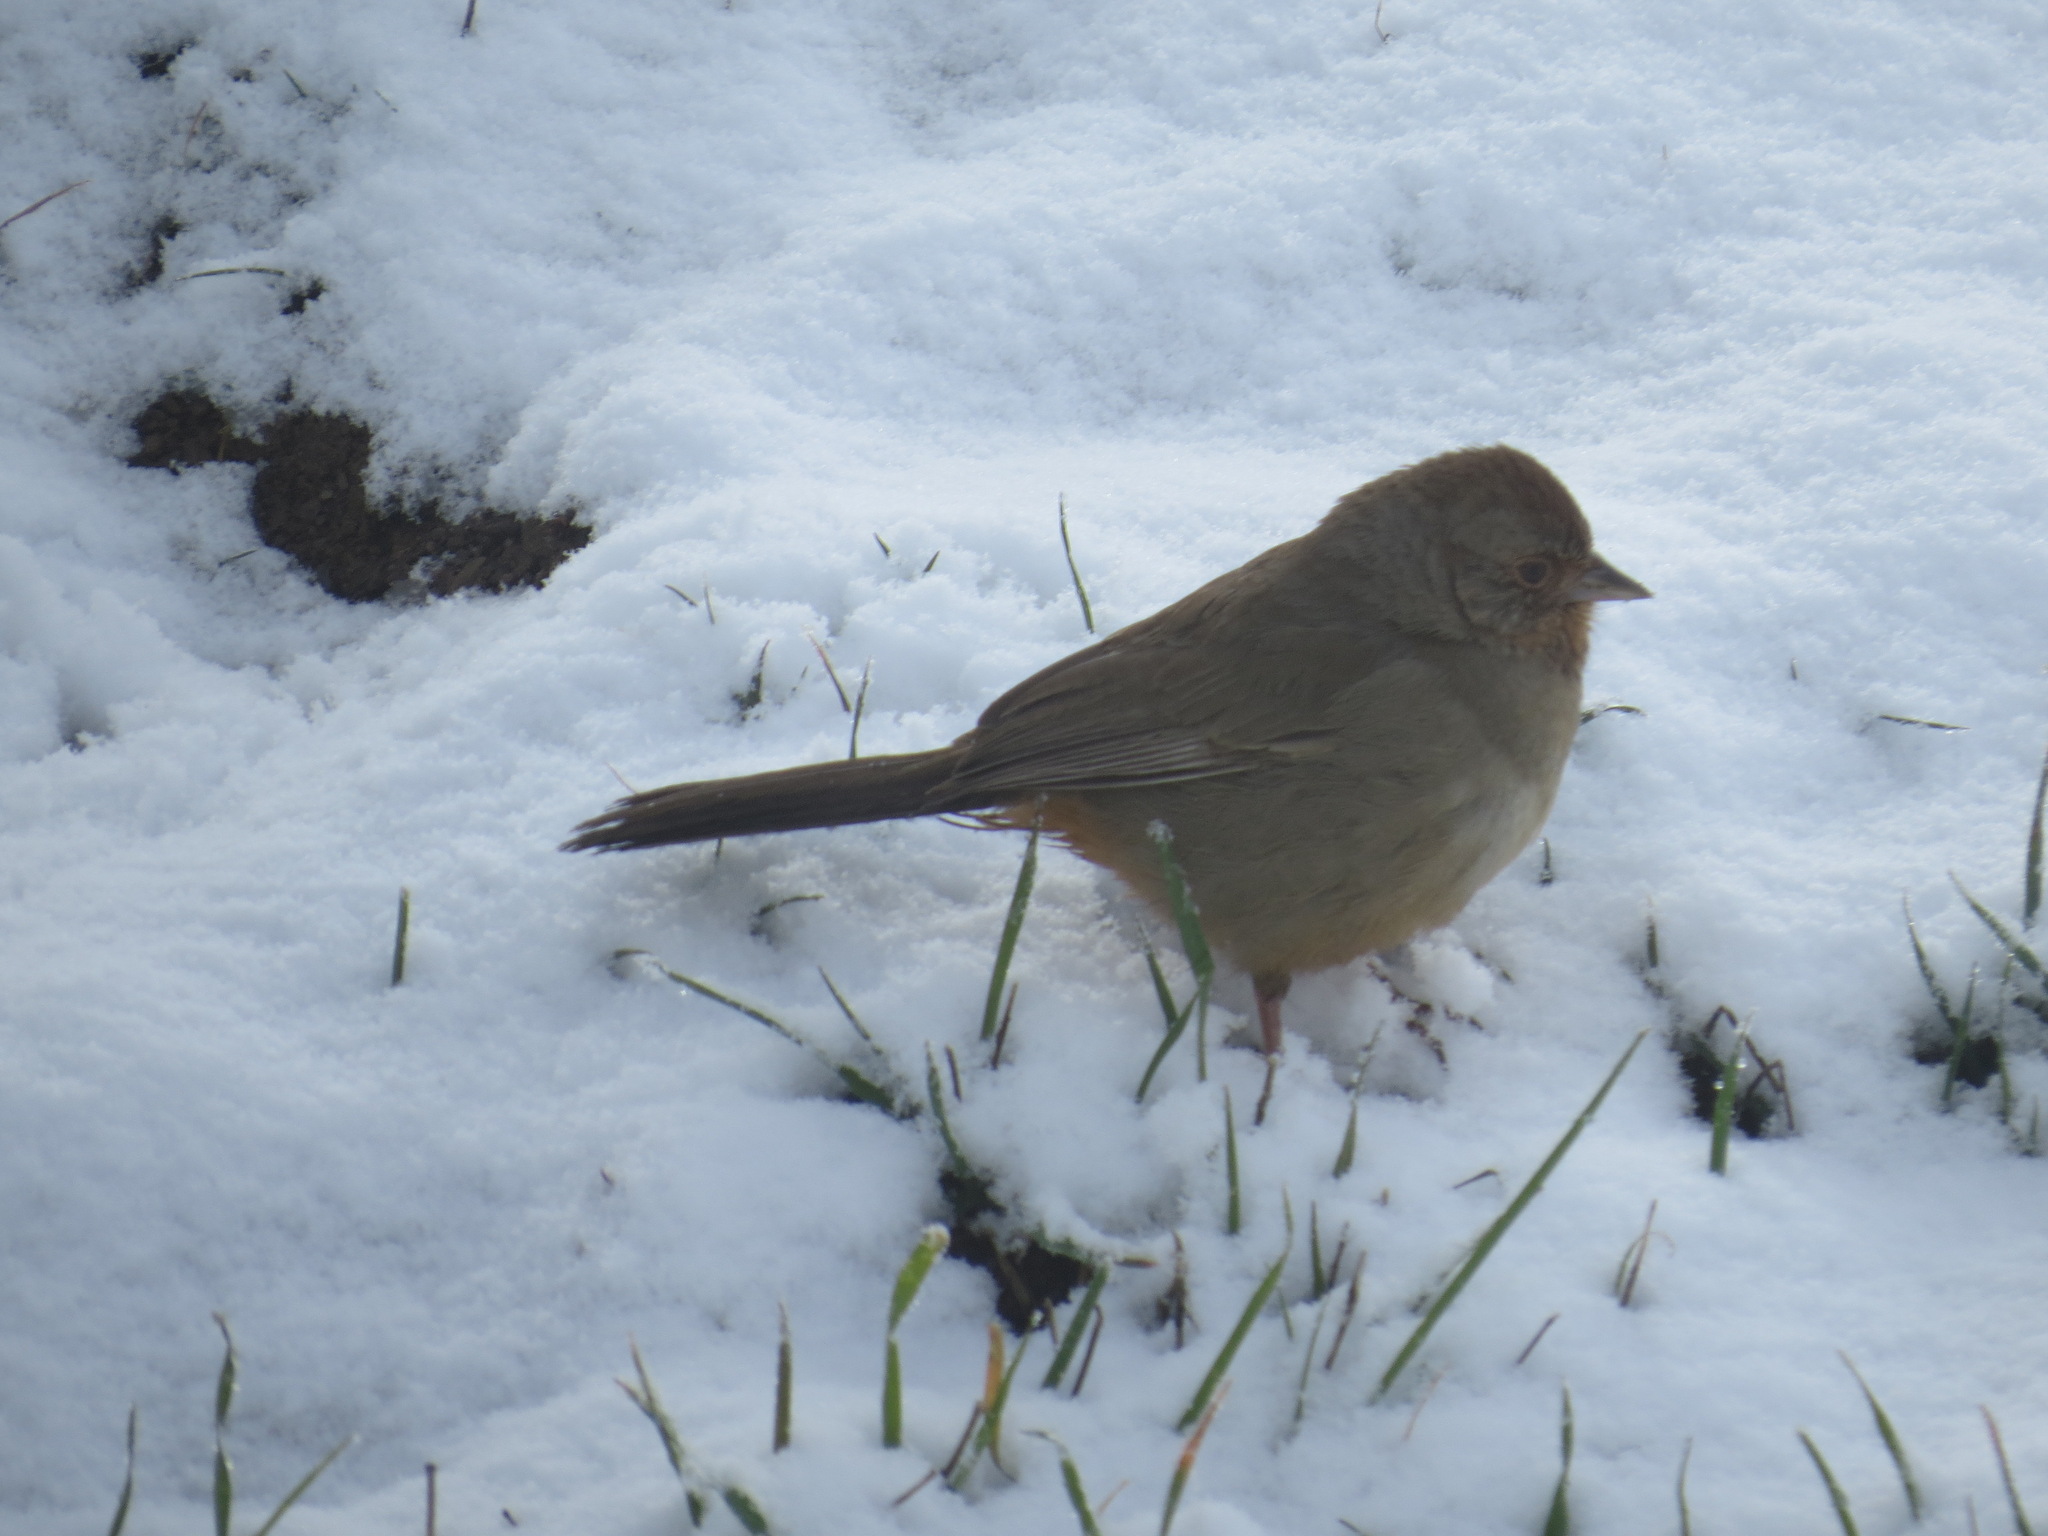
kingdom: Animalia
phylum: Chordata
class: Aves
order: Passeriformes
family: Passerellidae
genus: Melozone
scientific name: Melozone crissalis
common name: California towhee
